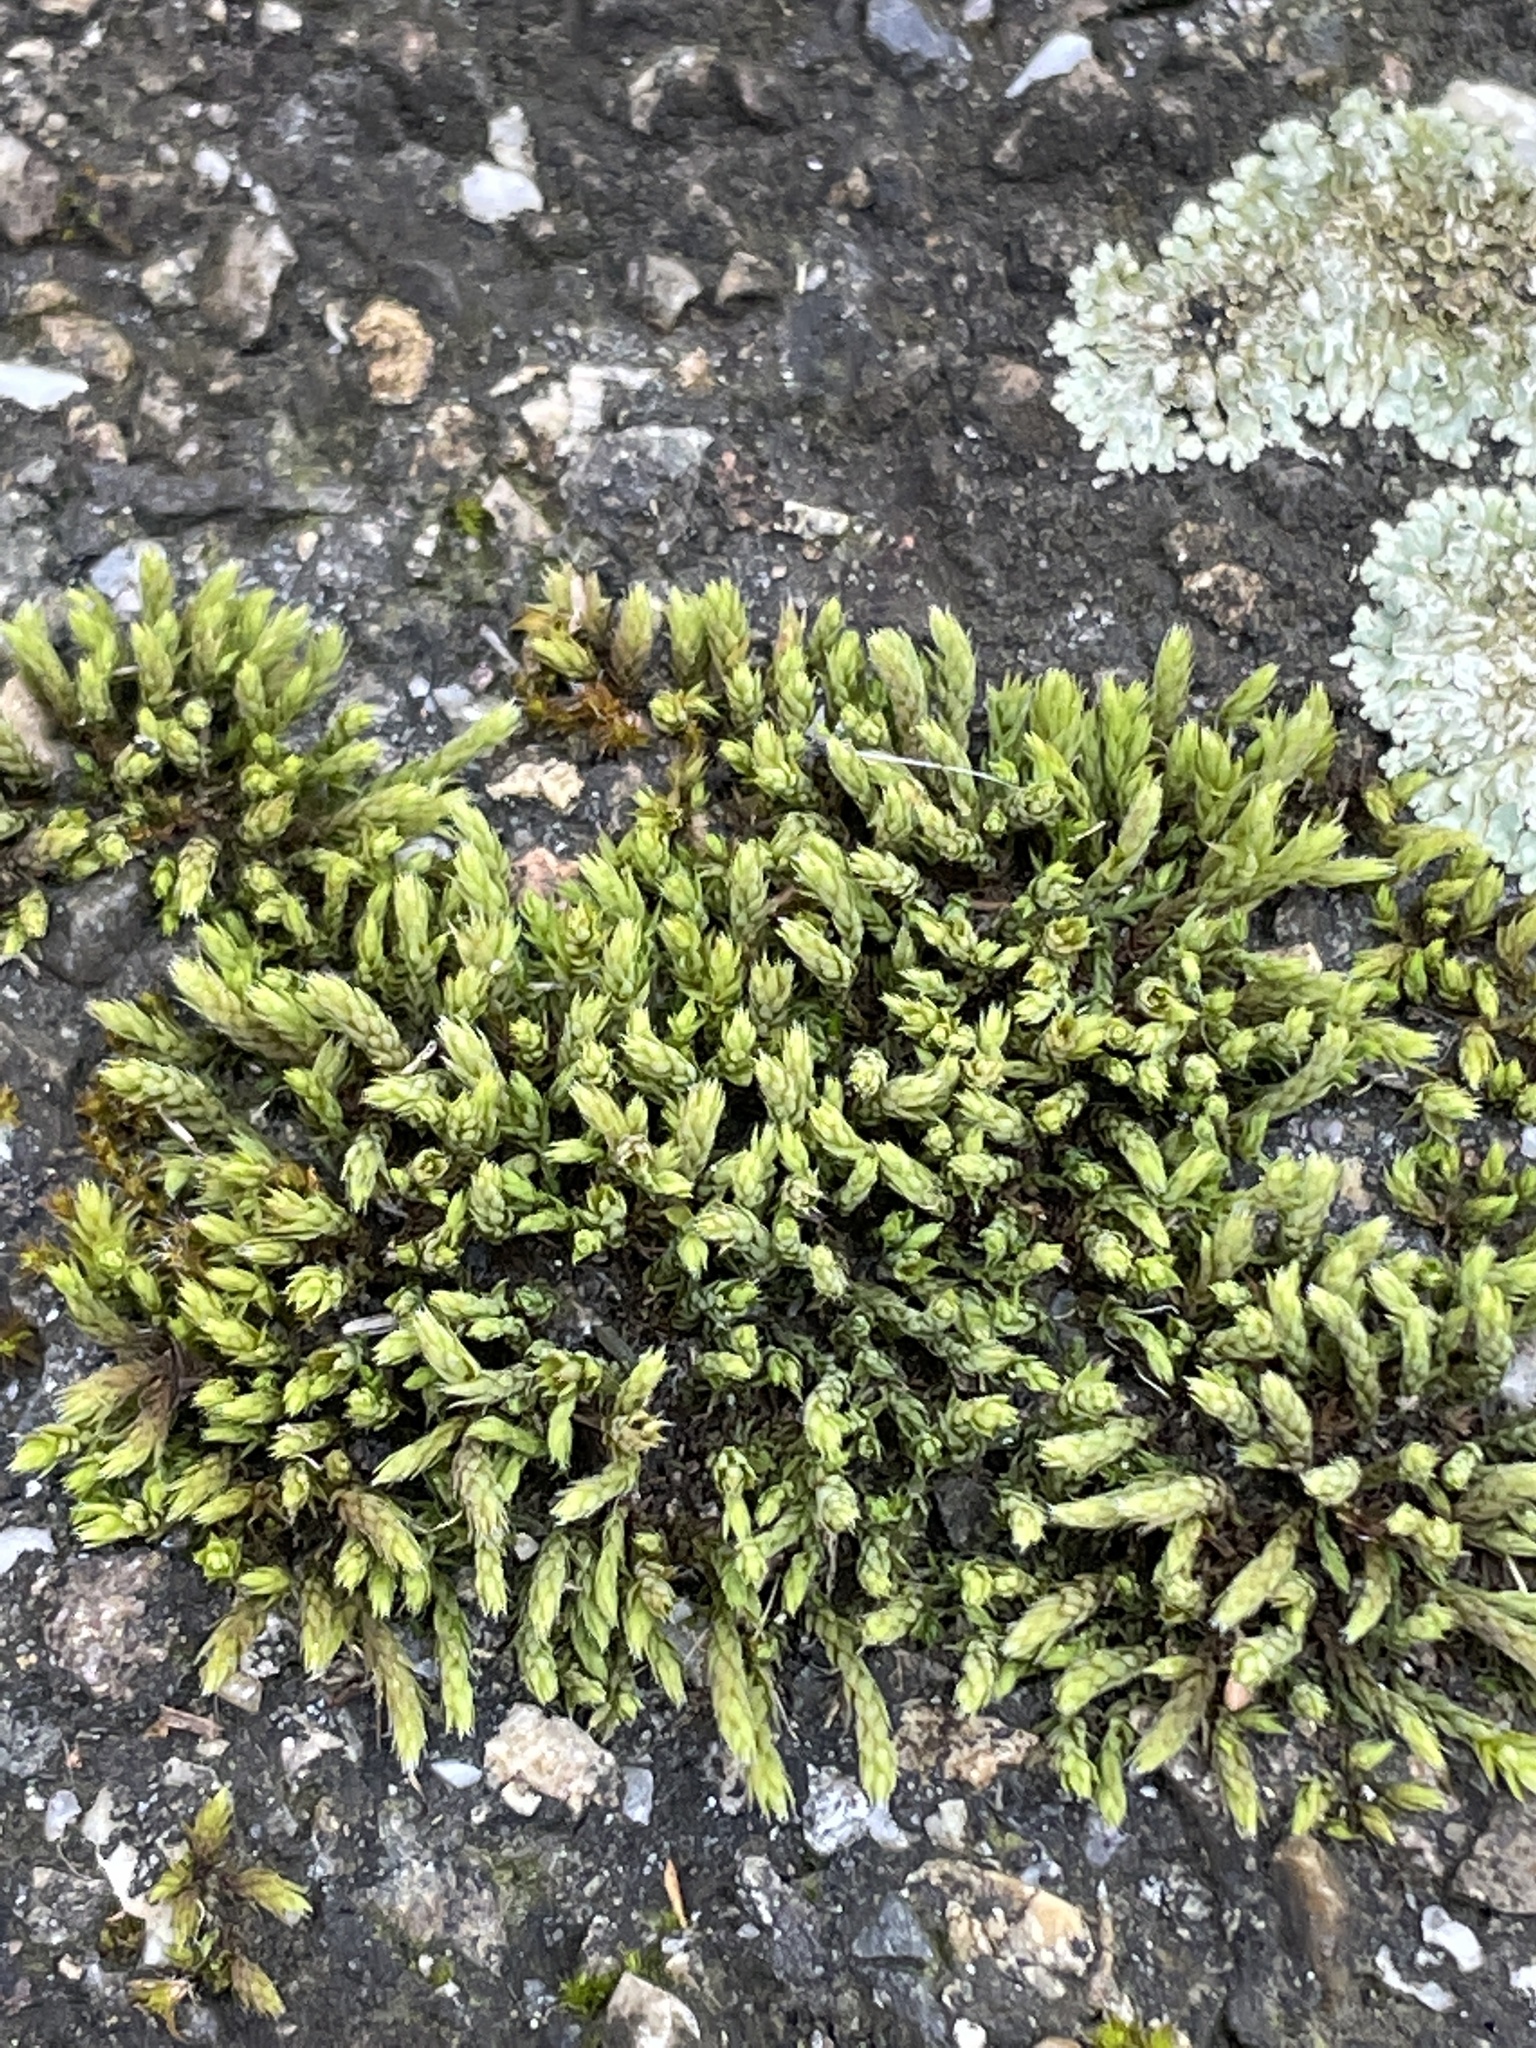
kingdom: Plantae
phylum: Bryophyta
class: Bryopsida
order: Hedwigiales
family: Hedwigiaceae
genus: Hedwigia
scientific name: Hedwigia ciliata
